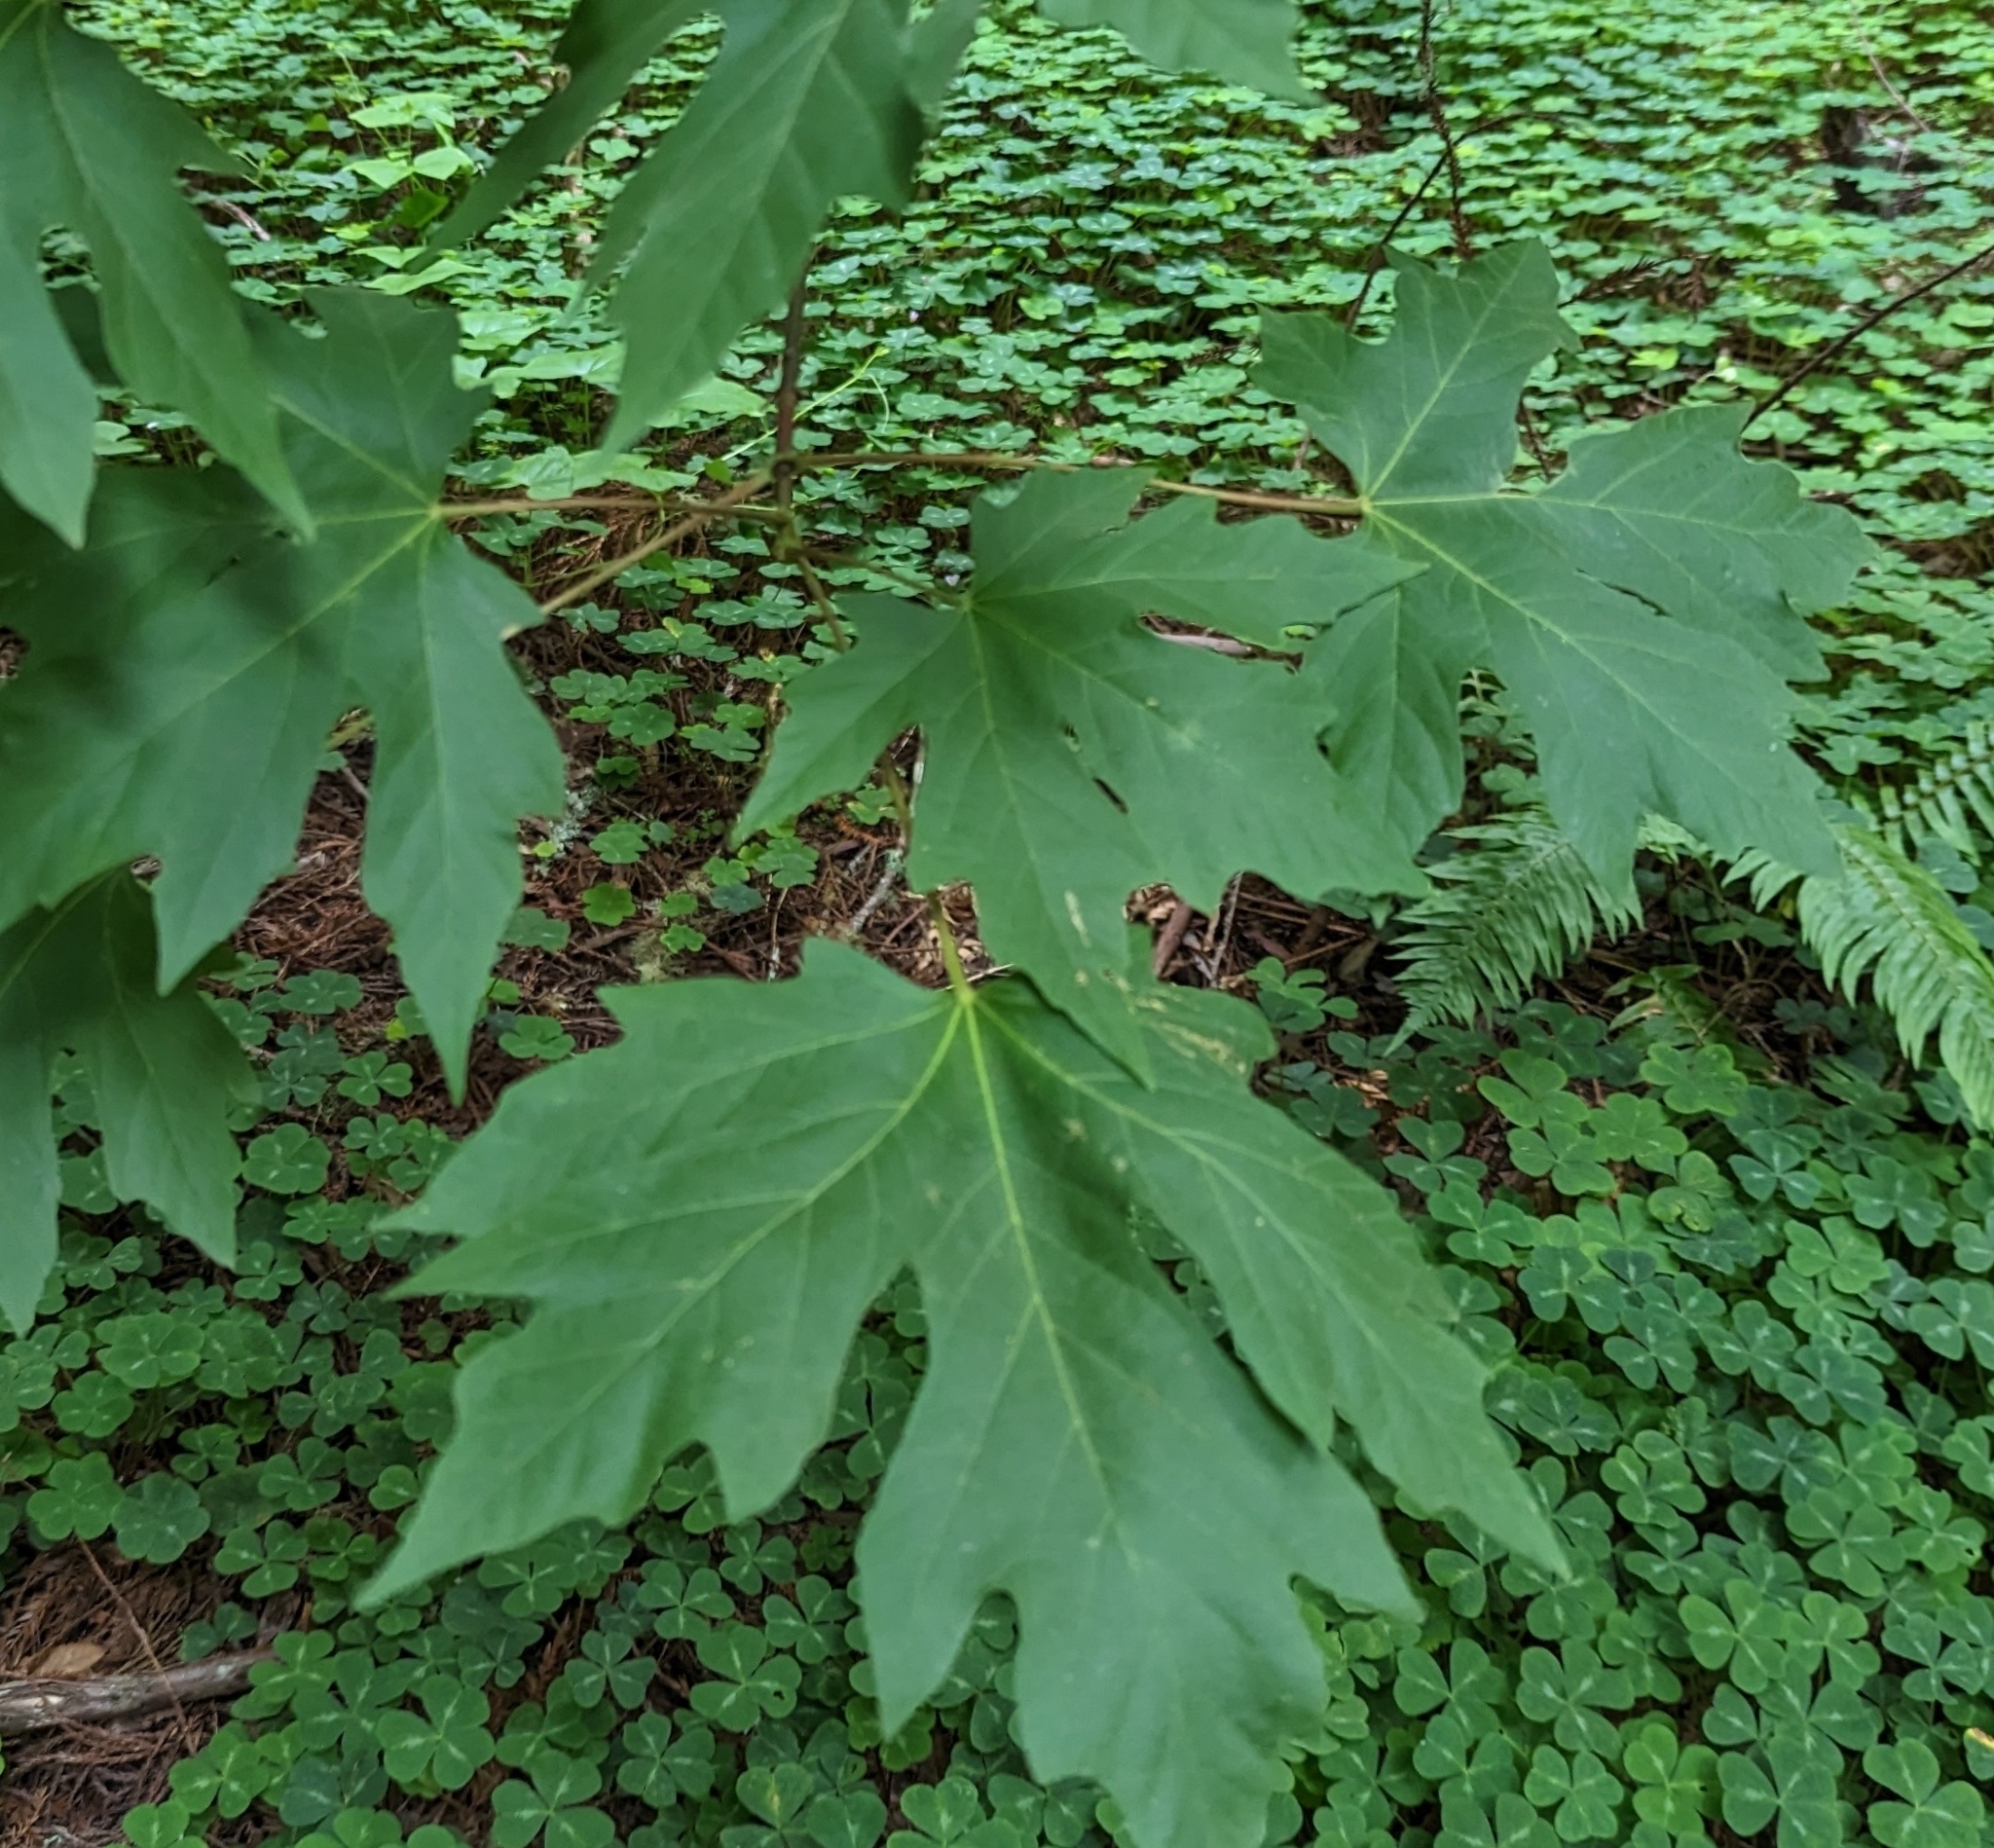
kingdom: Plantae
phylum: Tracheophyta
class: Magnoliopsida
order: Sapindales
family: Sapindaceae
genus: Acer
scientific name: Acer macrophyllum
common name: Oregon maple
